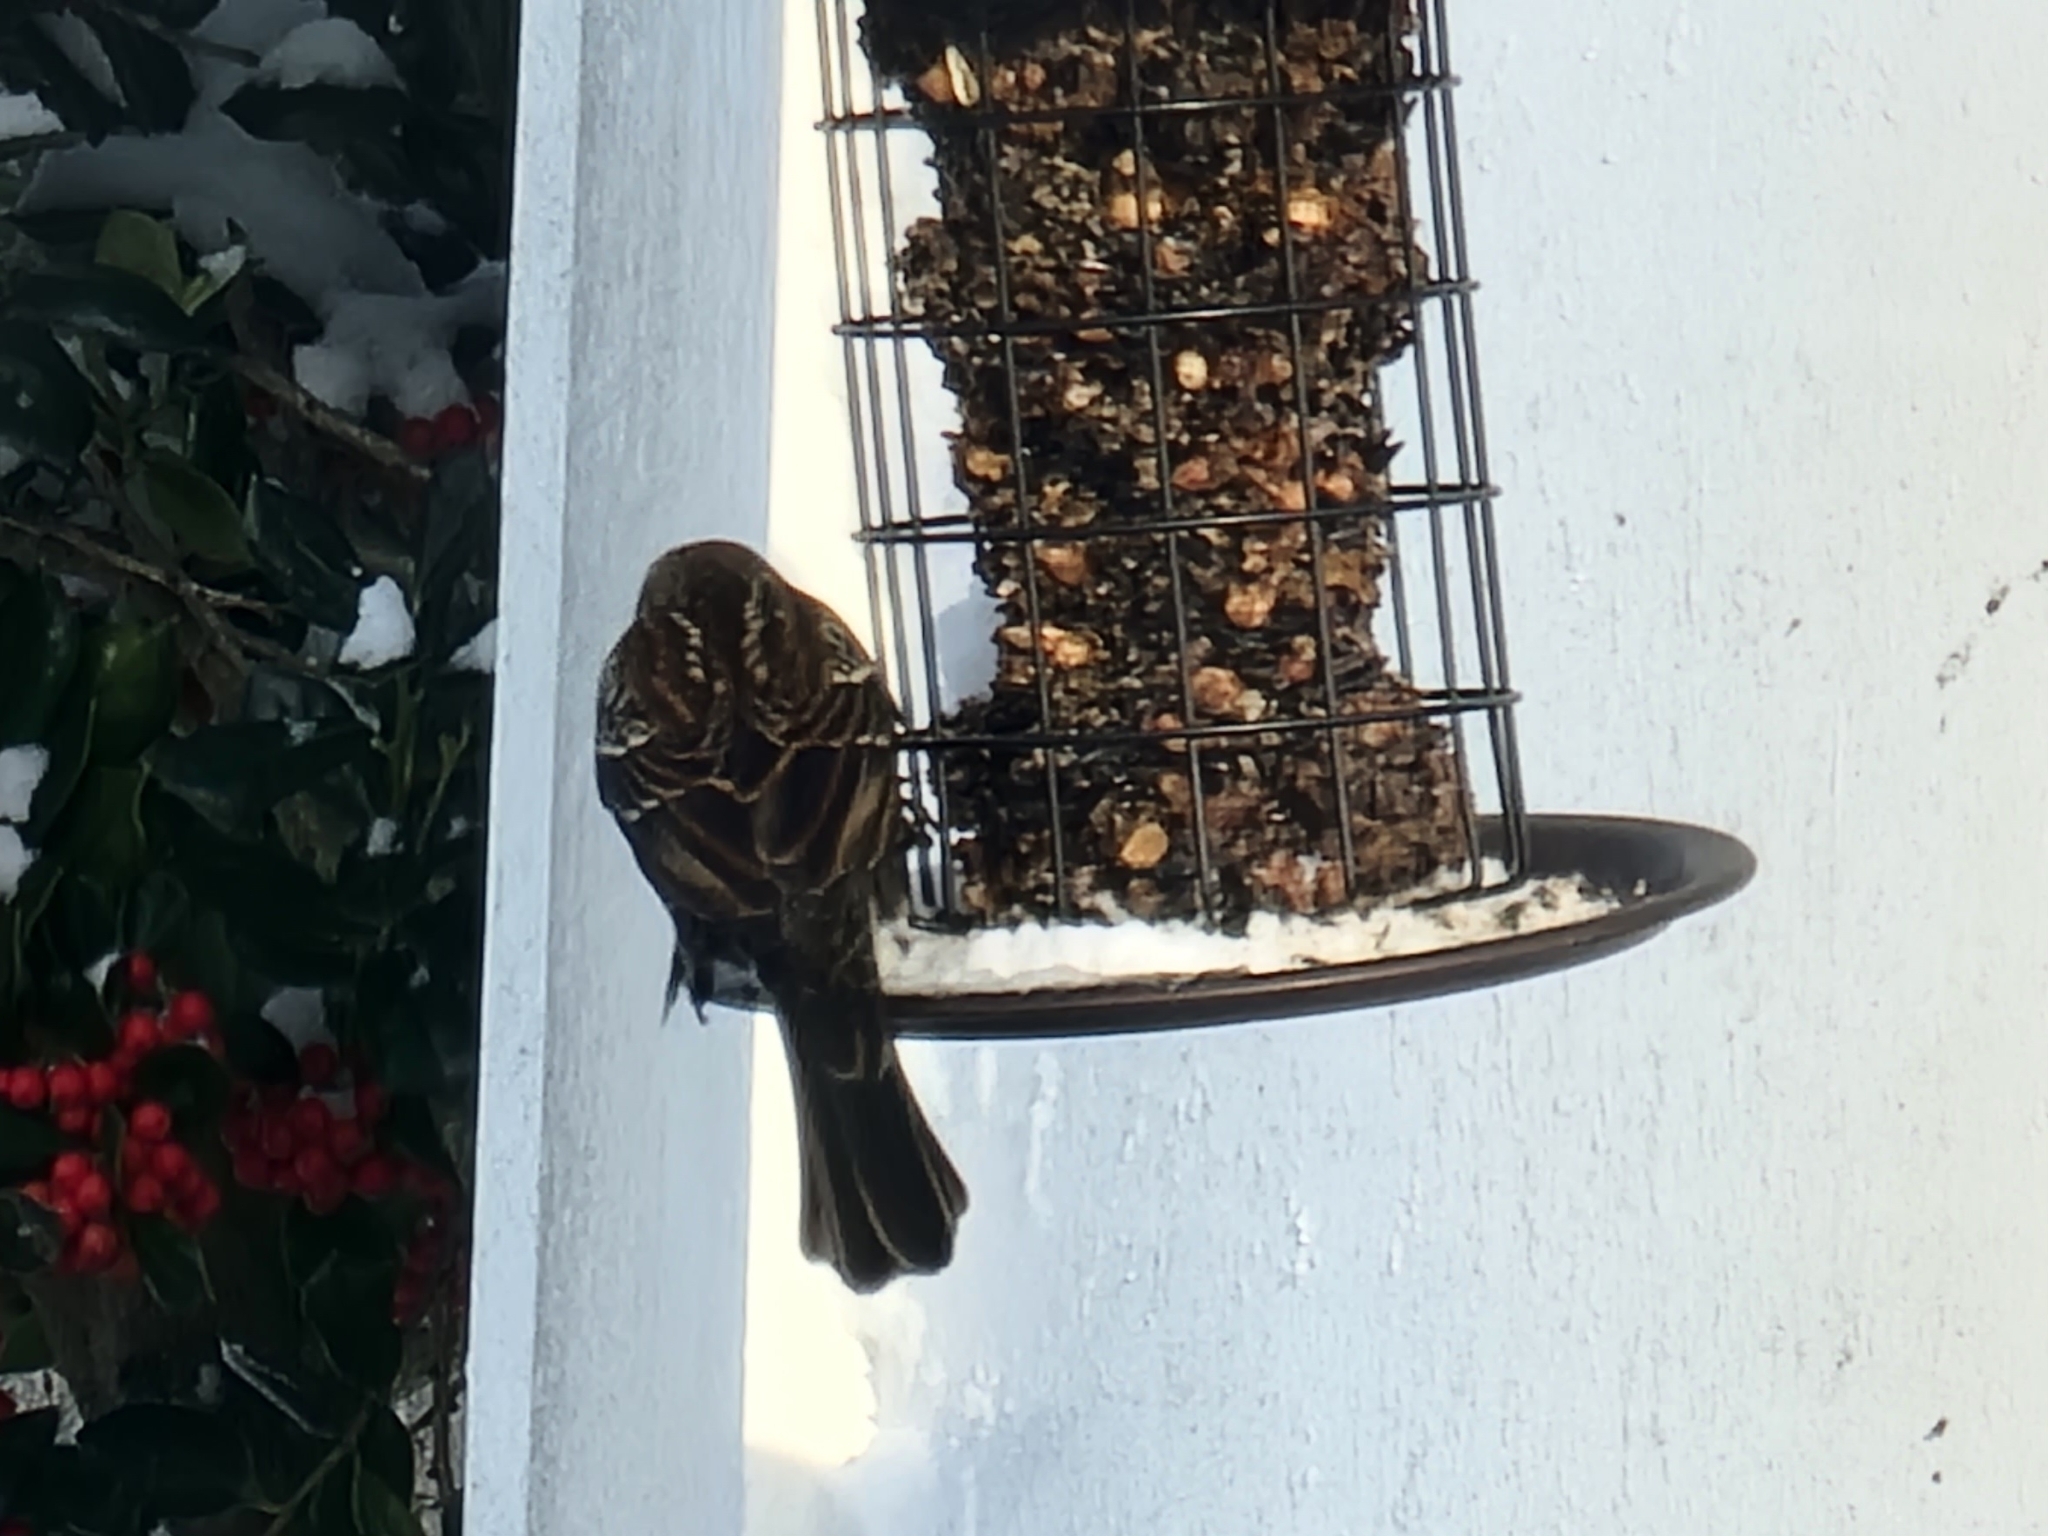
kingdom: Animalia
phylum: Chordata
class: Aves
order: Passeriformes
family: Icteridae
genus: Agelaius
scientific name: Agelaius phoeniceus
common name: Red-winged blackbird
